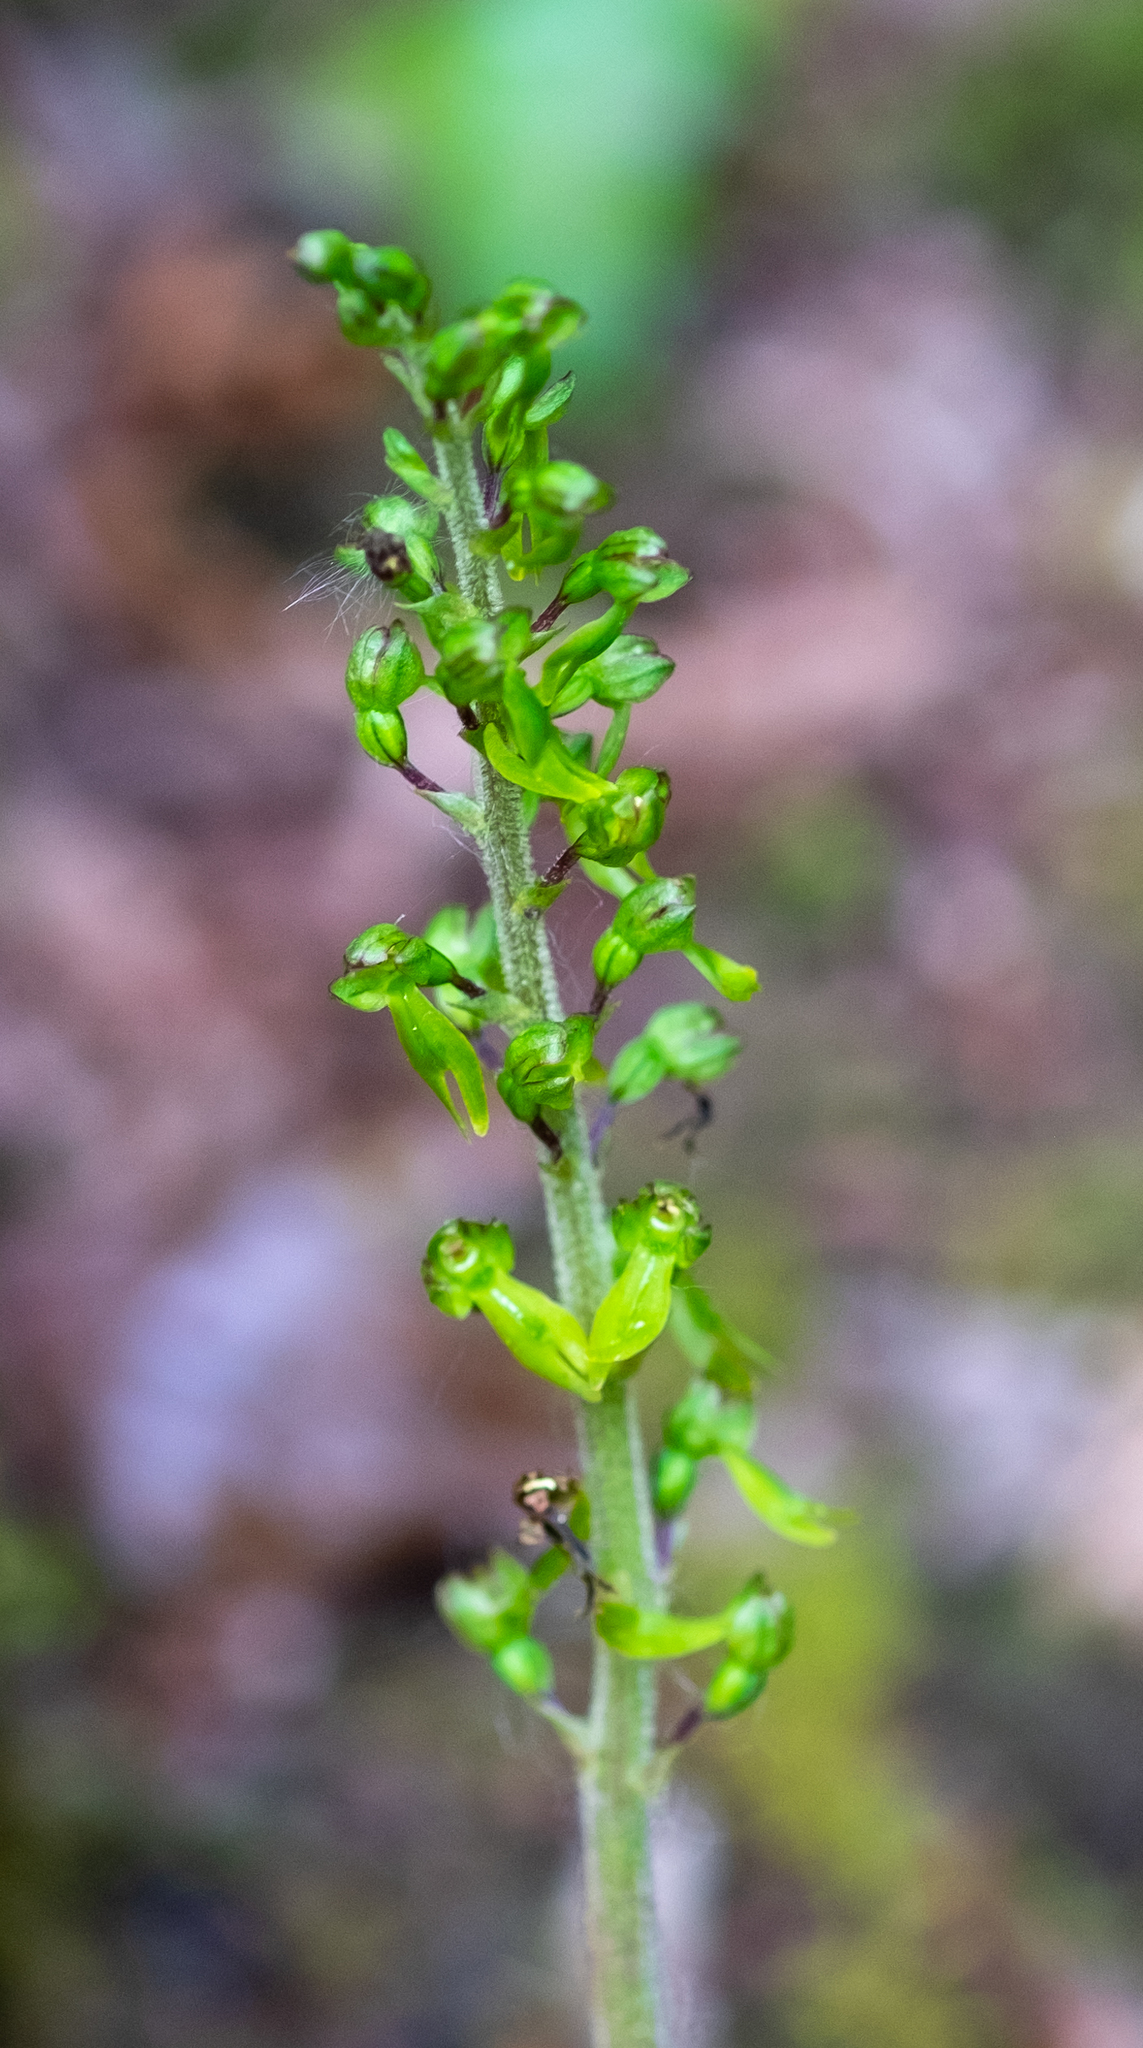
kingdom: Plantae
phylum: Tracheophyta
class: Liliopsida
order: Asparagales
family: Orchidaceae
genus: Neottia
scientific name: Neottia ovata
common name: Common twayblade
